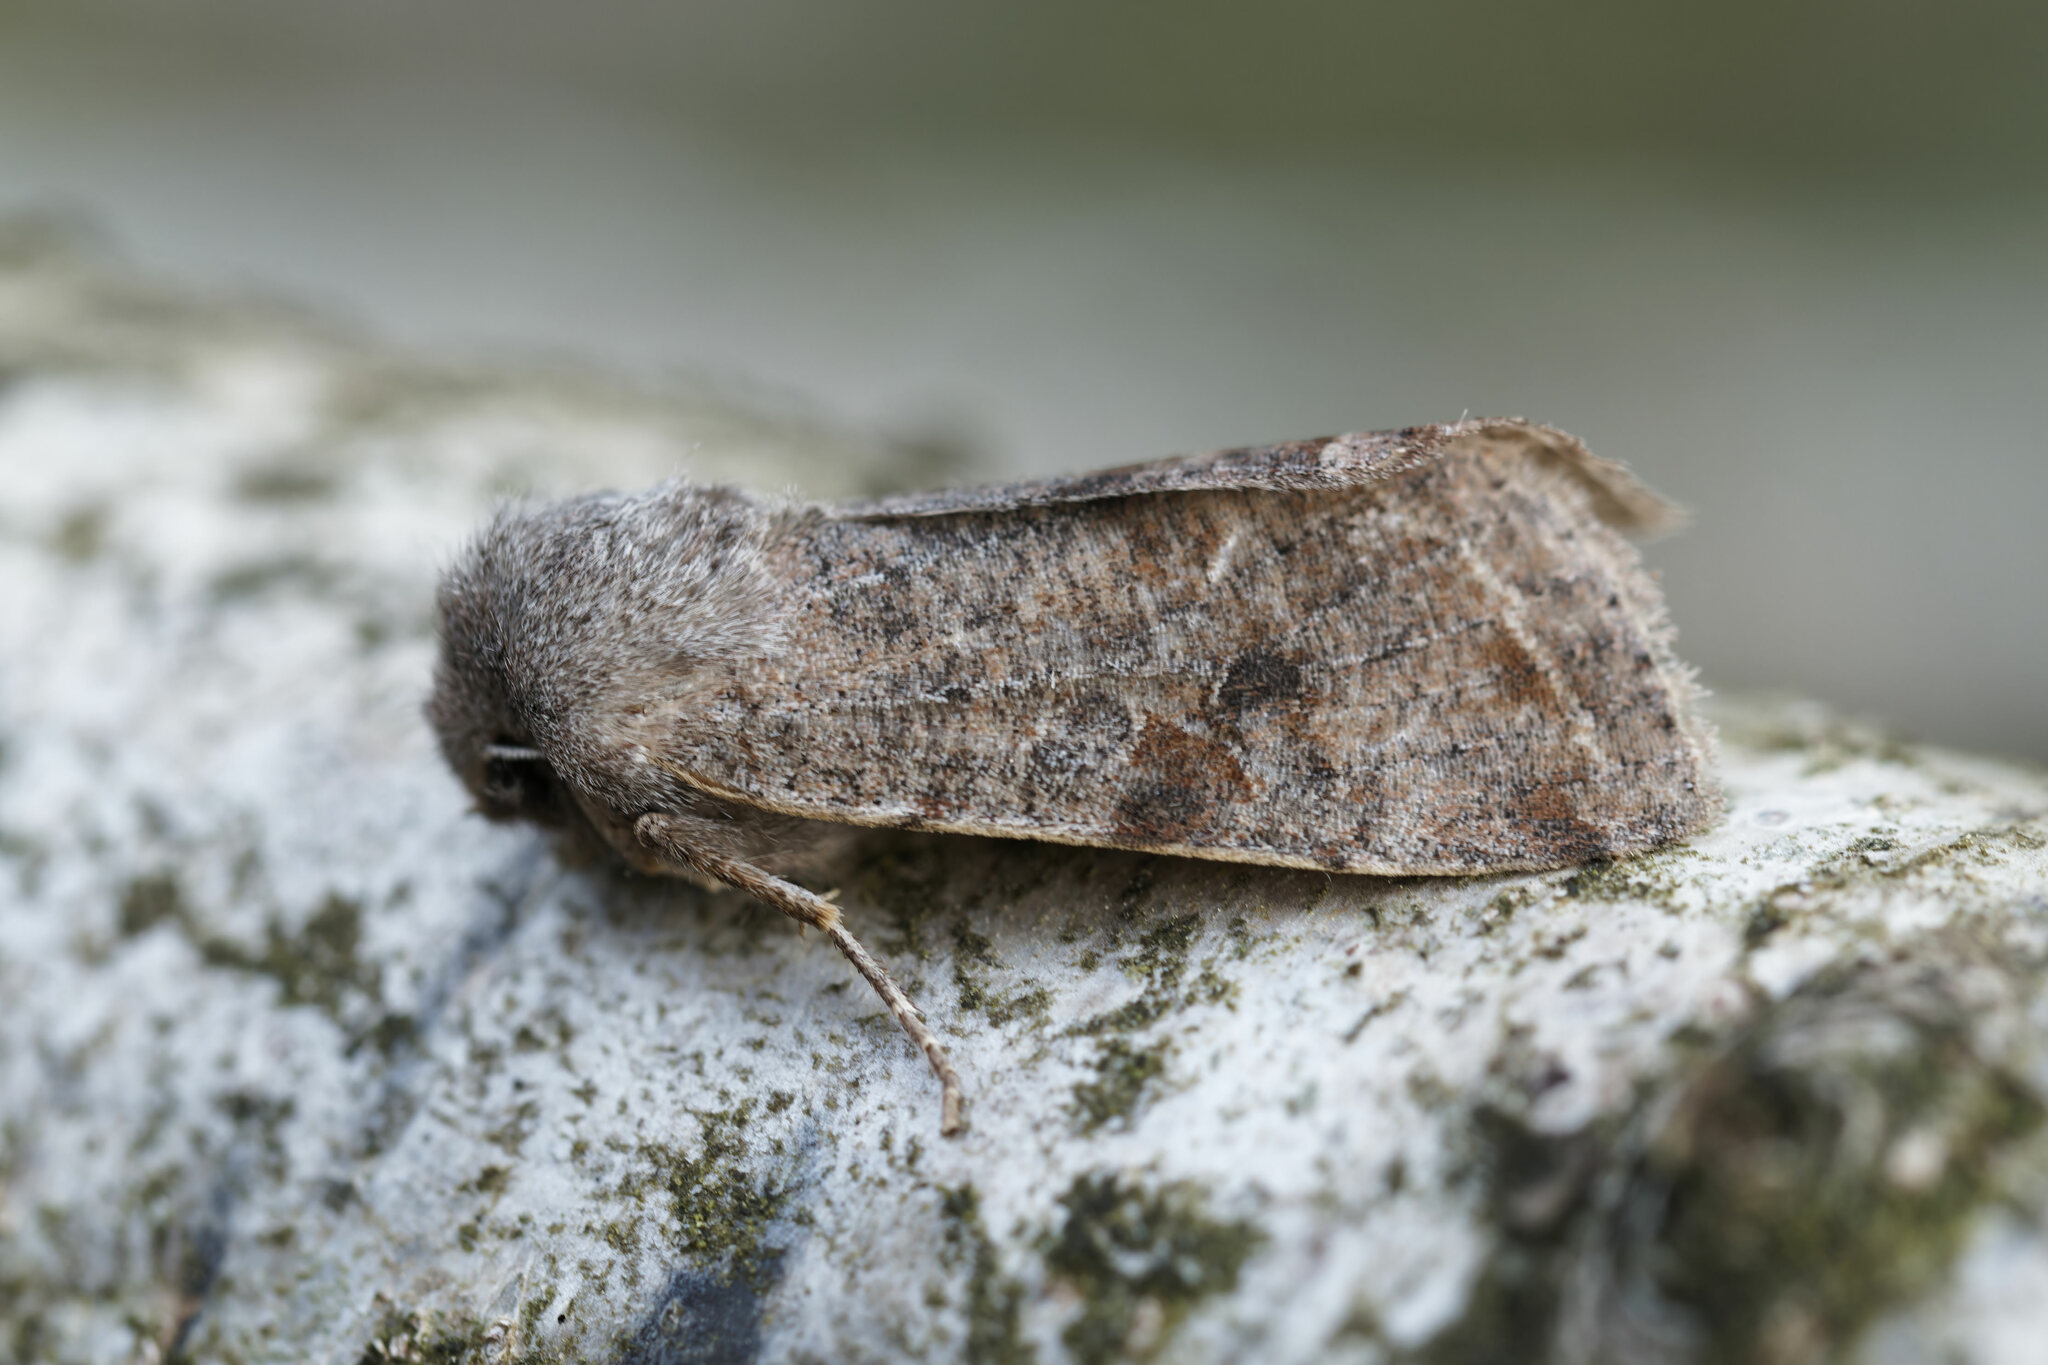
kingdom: Animalia
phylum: Arthropoda
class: Insecta
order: Lepidoptera
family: Noctuidae
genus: Orthosia
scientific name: Orthosia incerta
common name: Clouded drab
